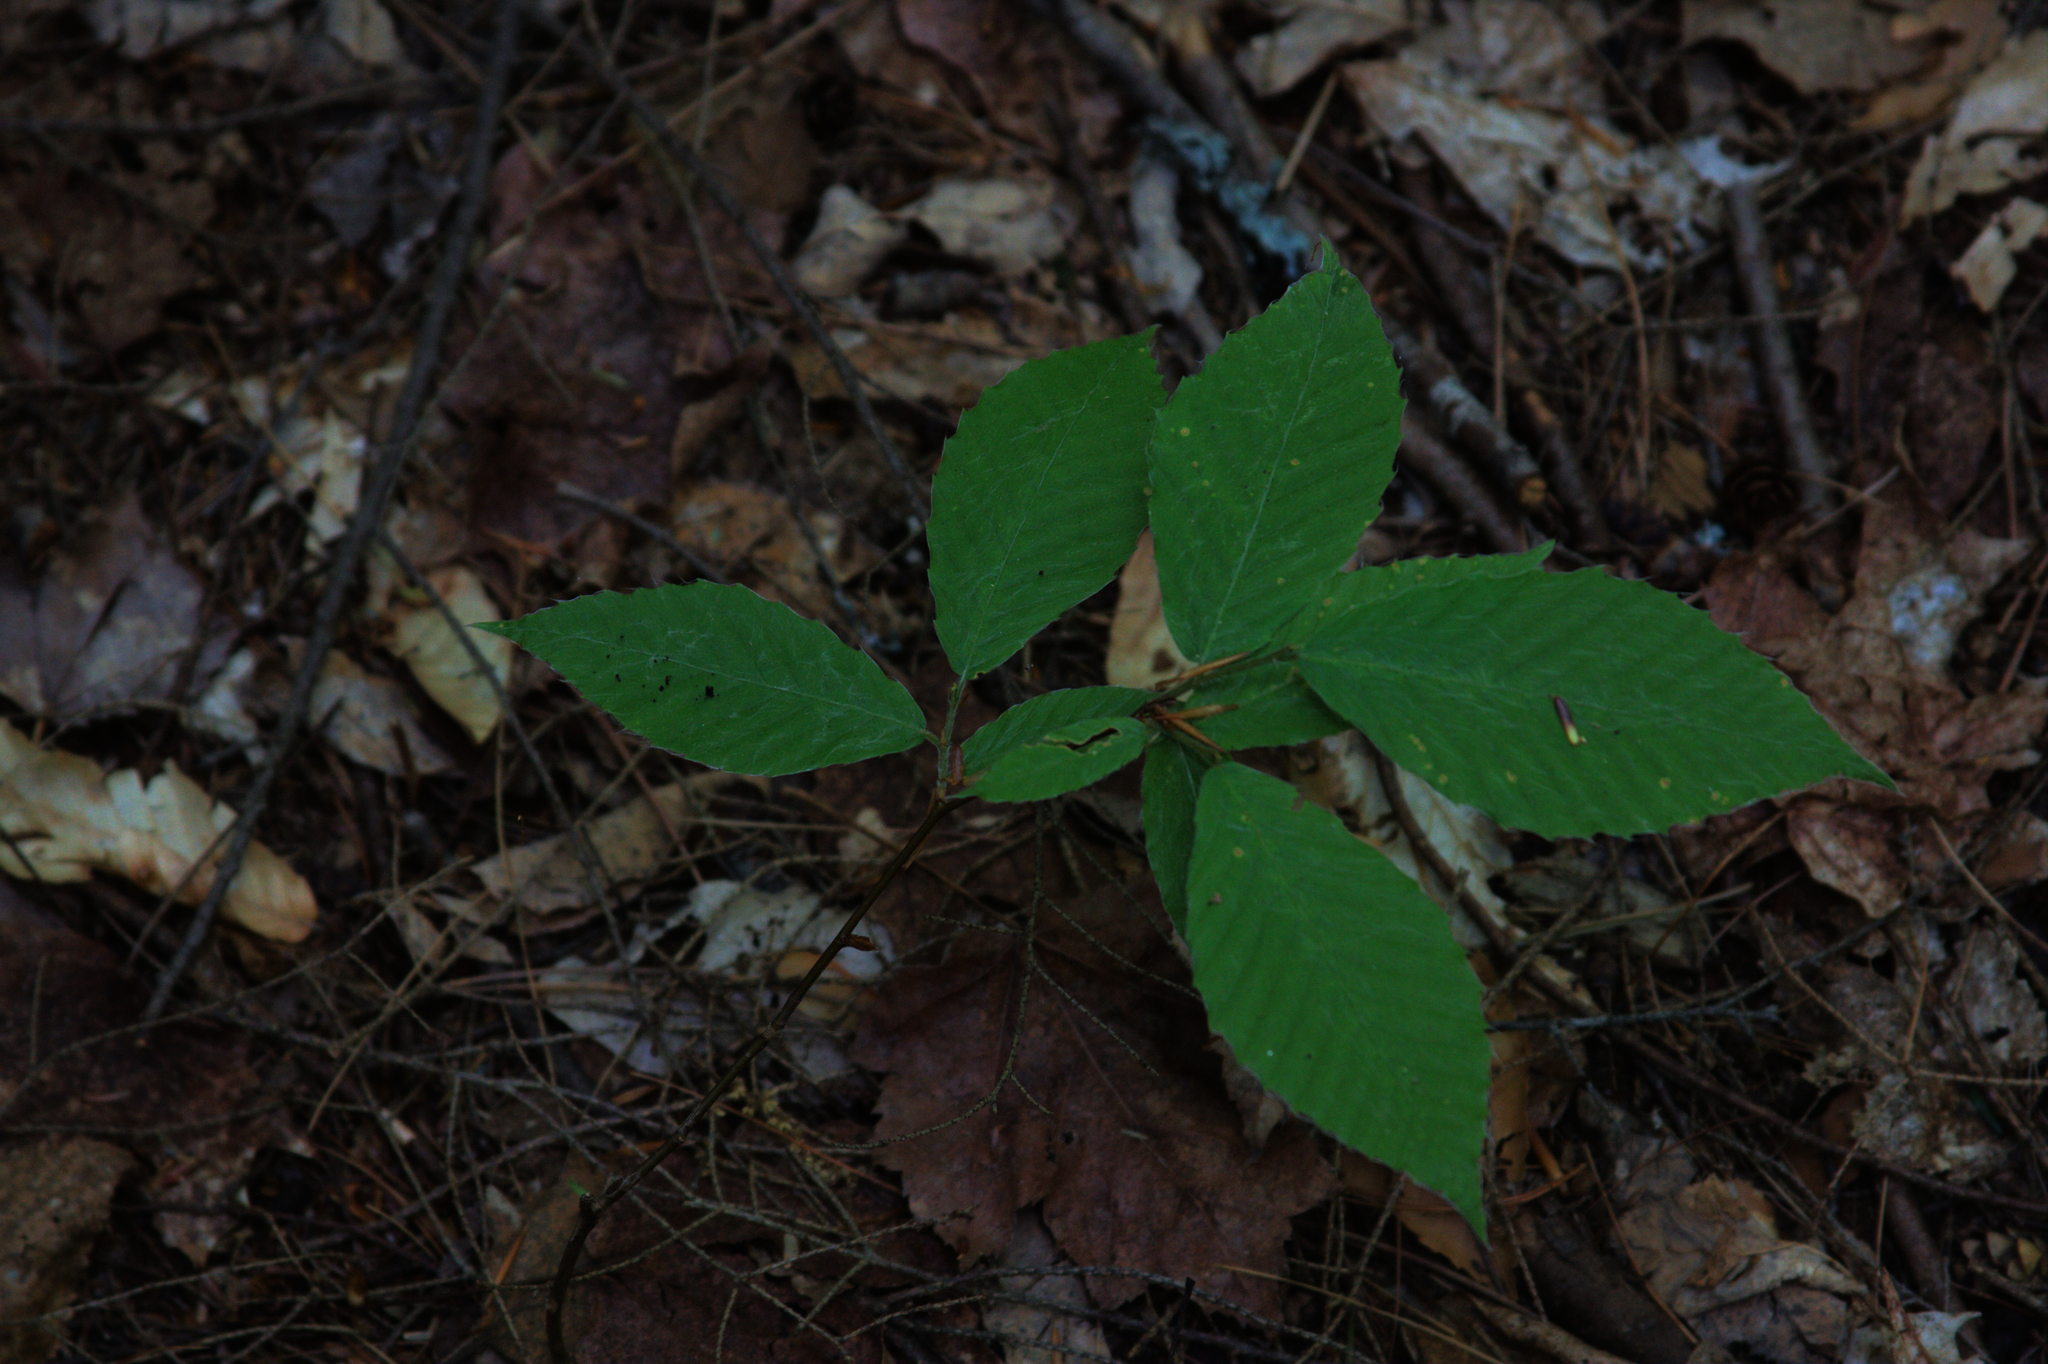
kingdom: Plantae
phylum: Tracheophyta
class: Magnoliopsida
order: Fagales
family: Fagaceae
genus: Fagus
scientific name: Fagus grandifolia
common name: American beech
